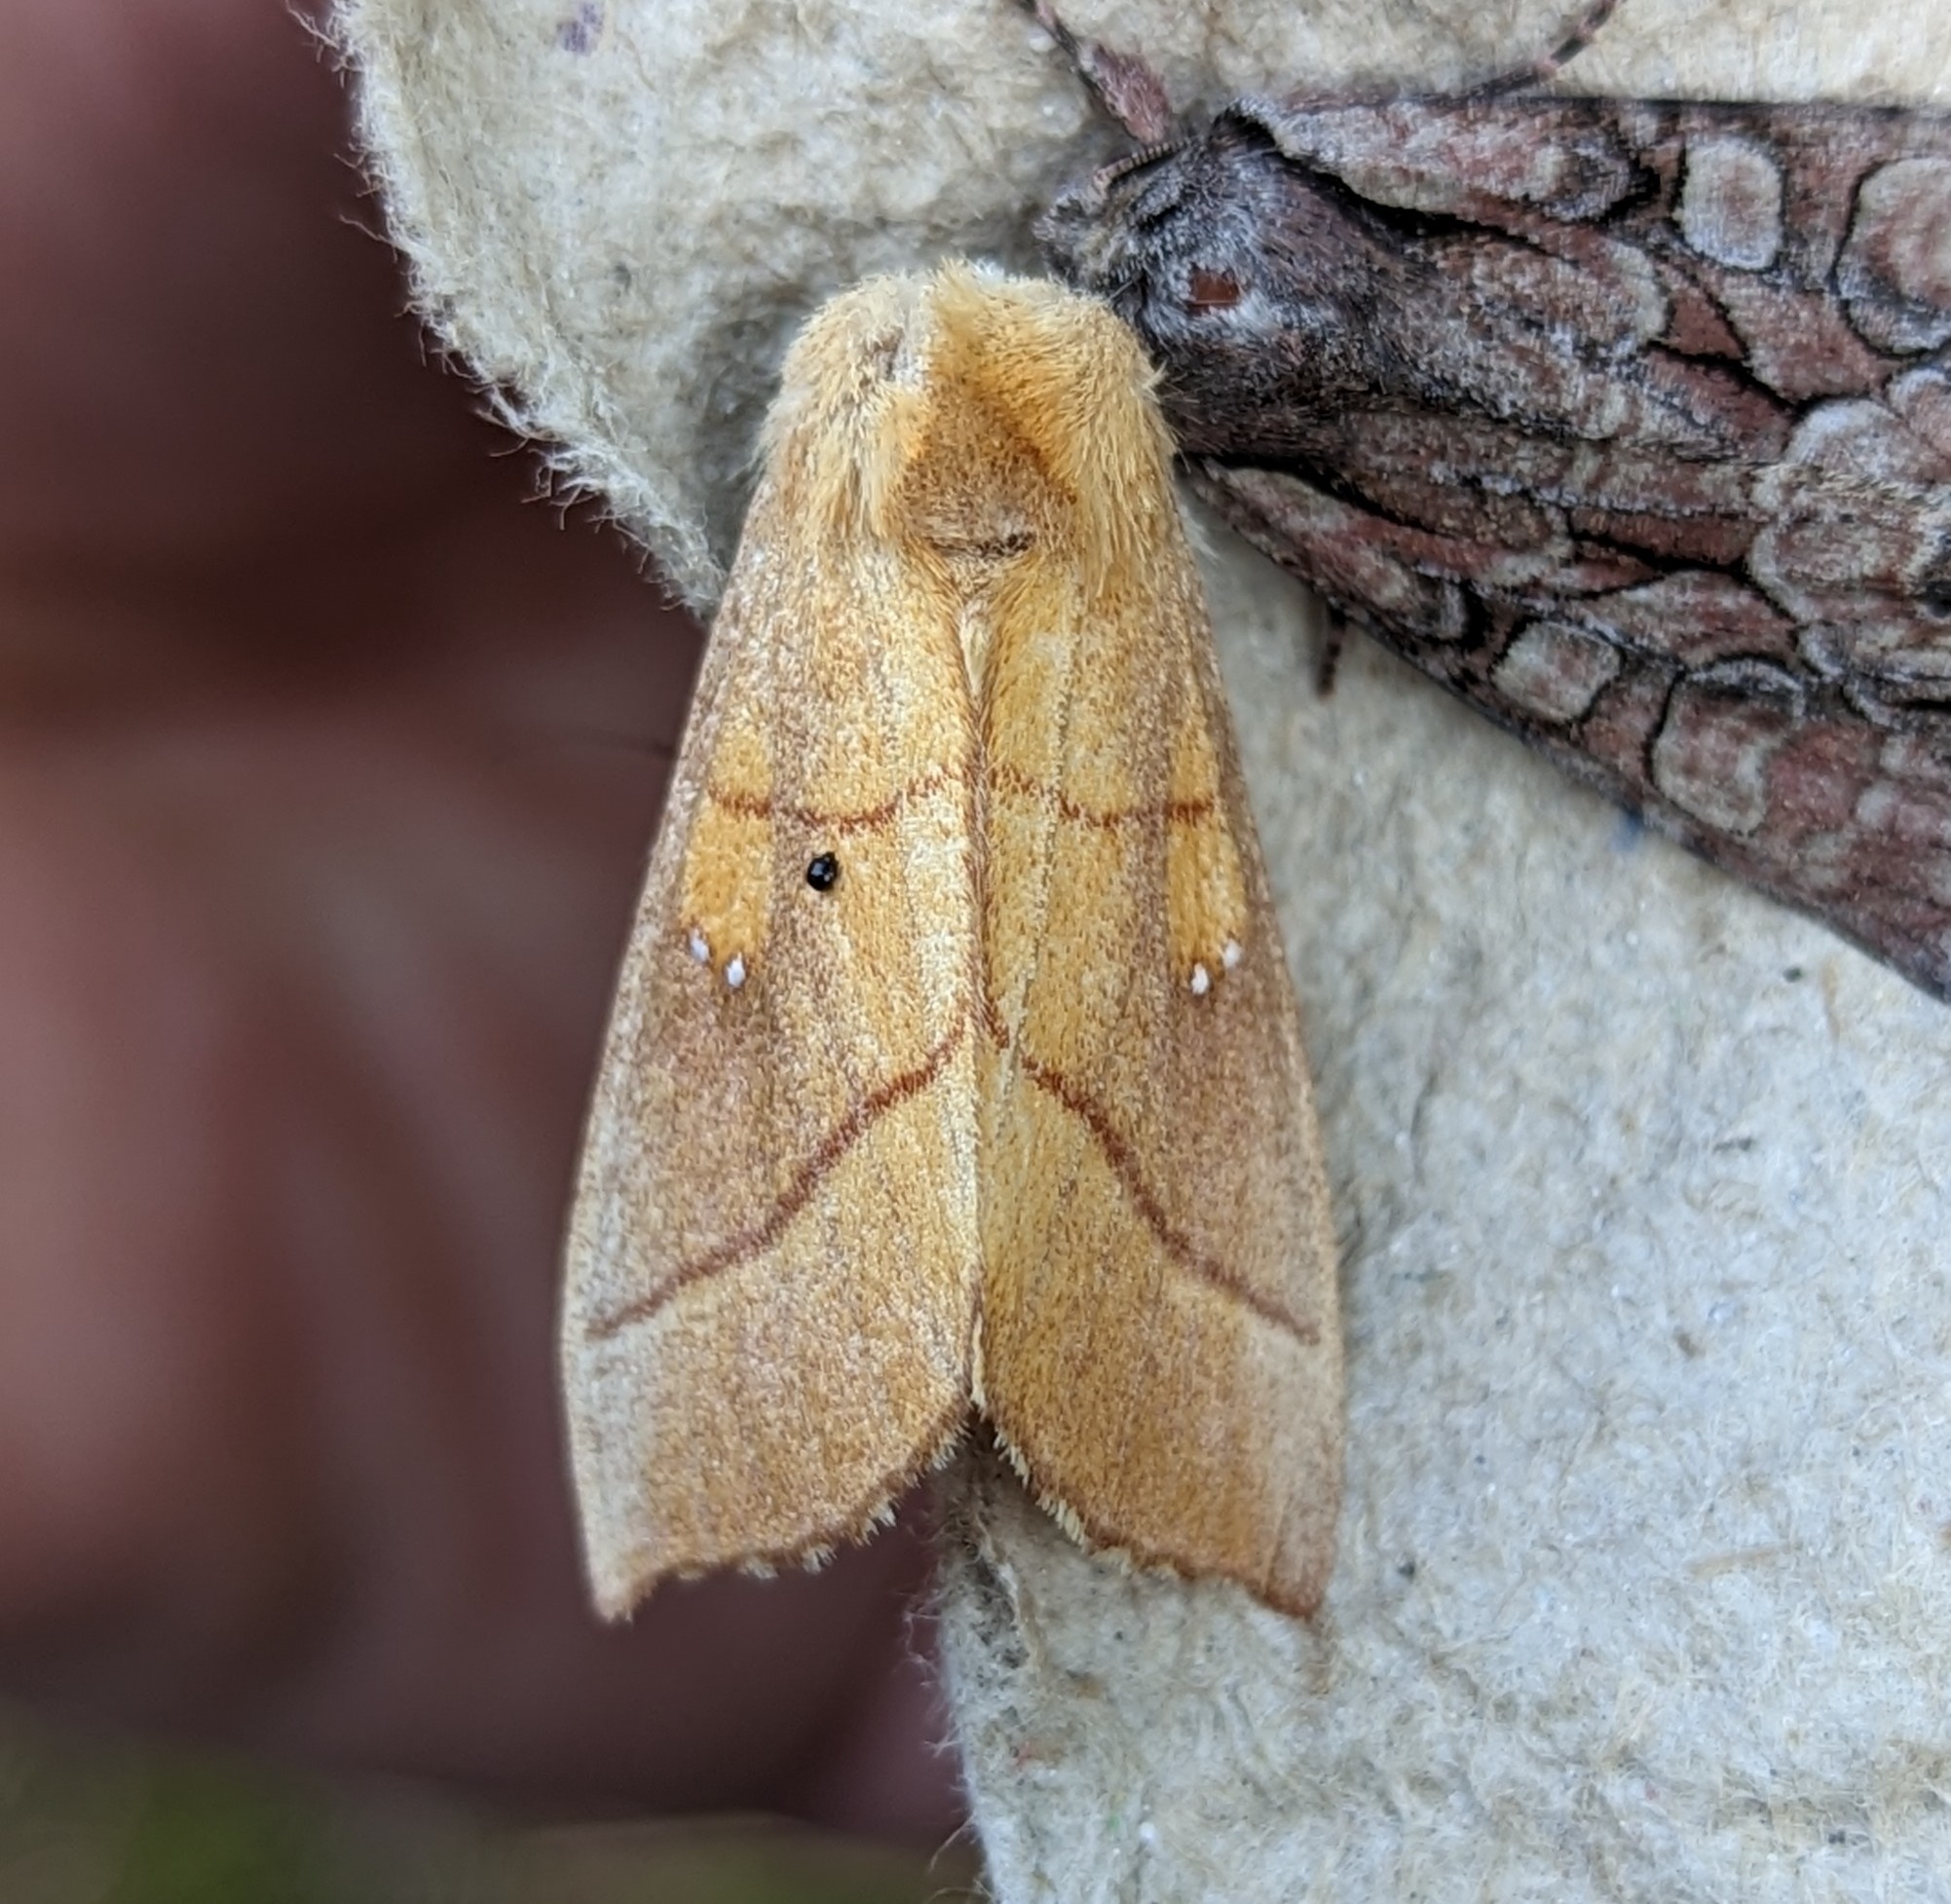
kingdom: Animalia
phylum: Arthropoda
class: Insecta
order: Lepidoptera
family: Notodontidae
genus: Nadata
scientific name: Nadata gibbosa
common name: White-dotted prominent
